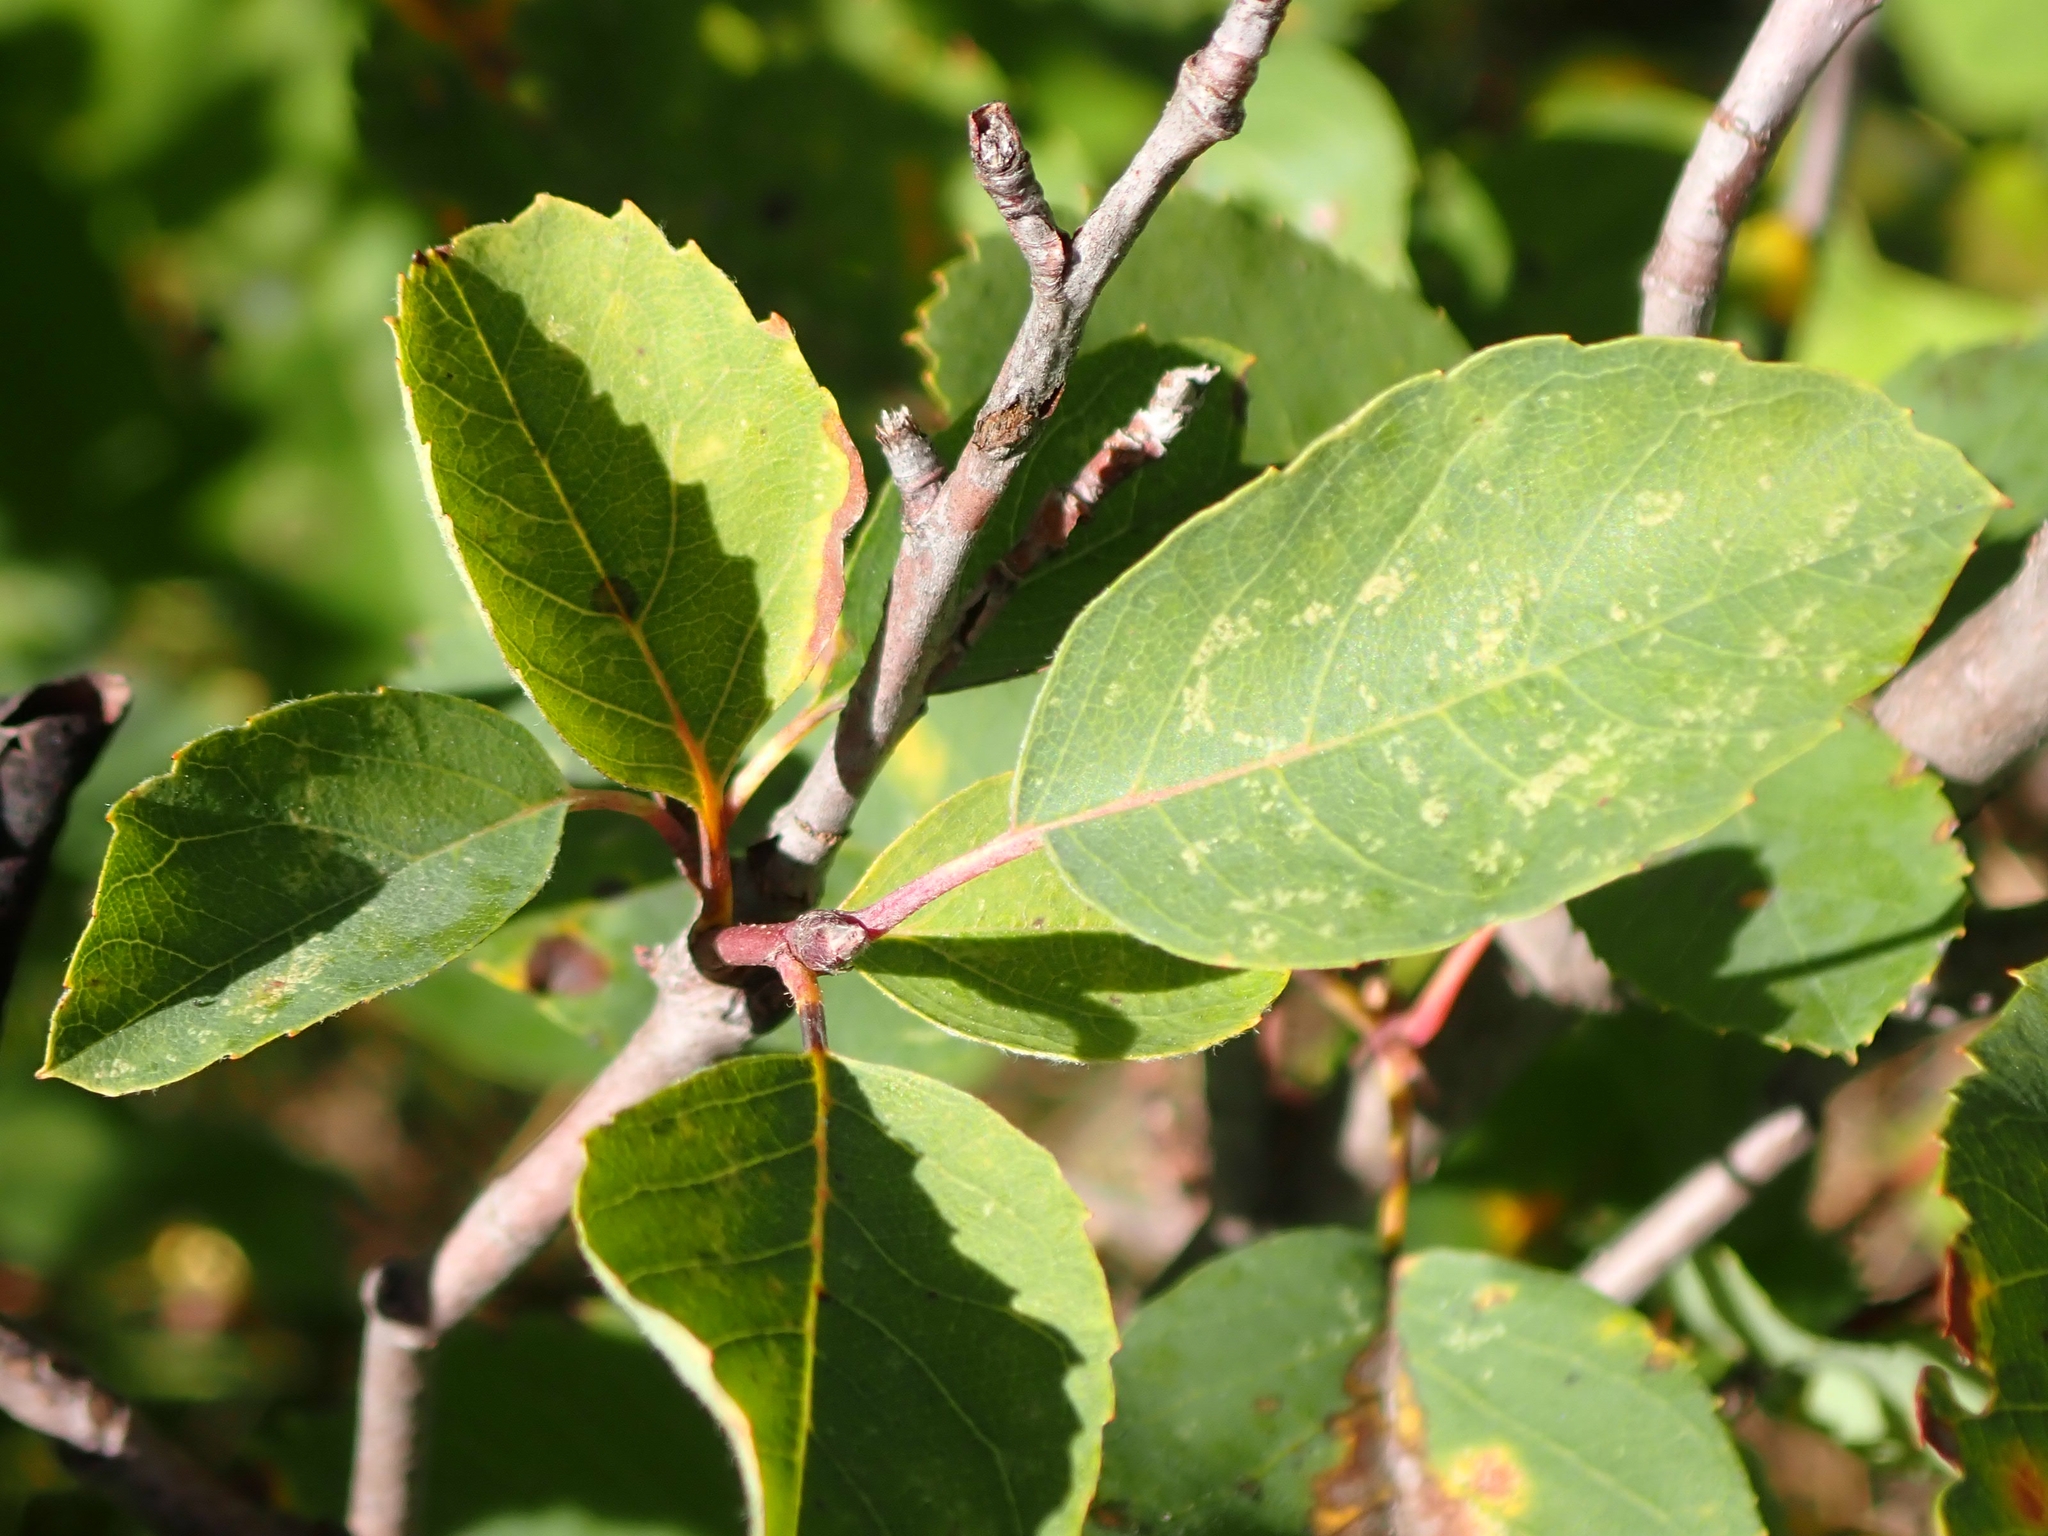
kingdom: Plantae
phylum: Tracheophyta
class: Magnoliopsida
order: Rosales
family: Rosaceae
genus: Amelanchier
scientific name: Amelanchier alnifolia
